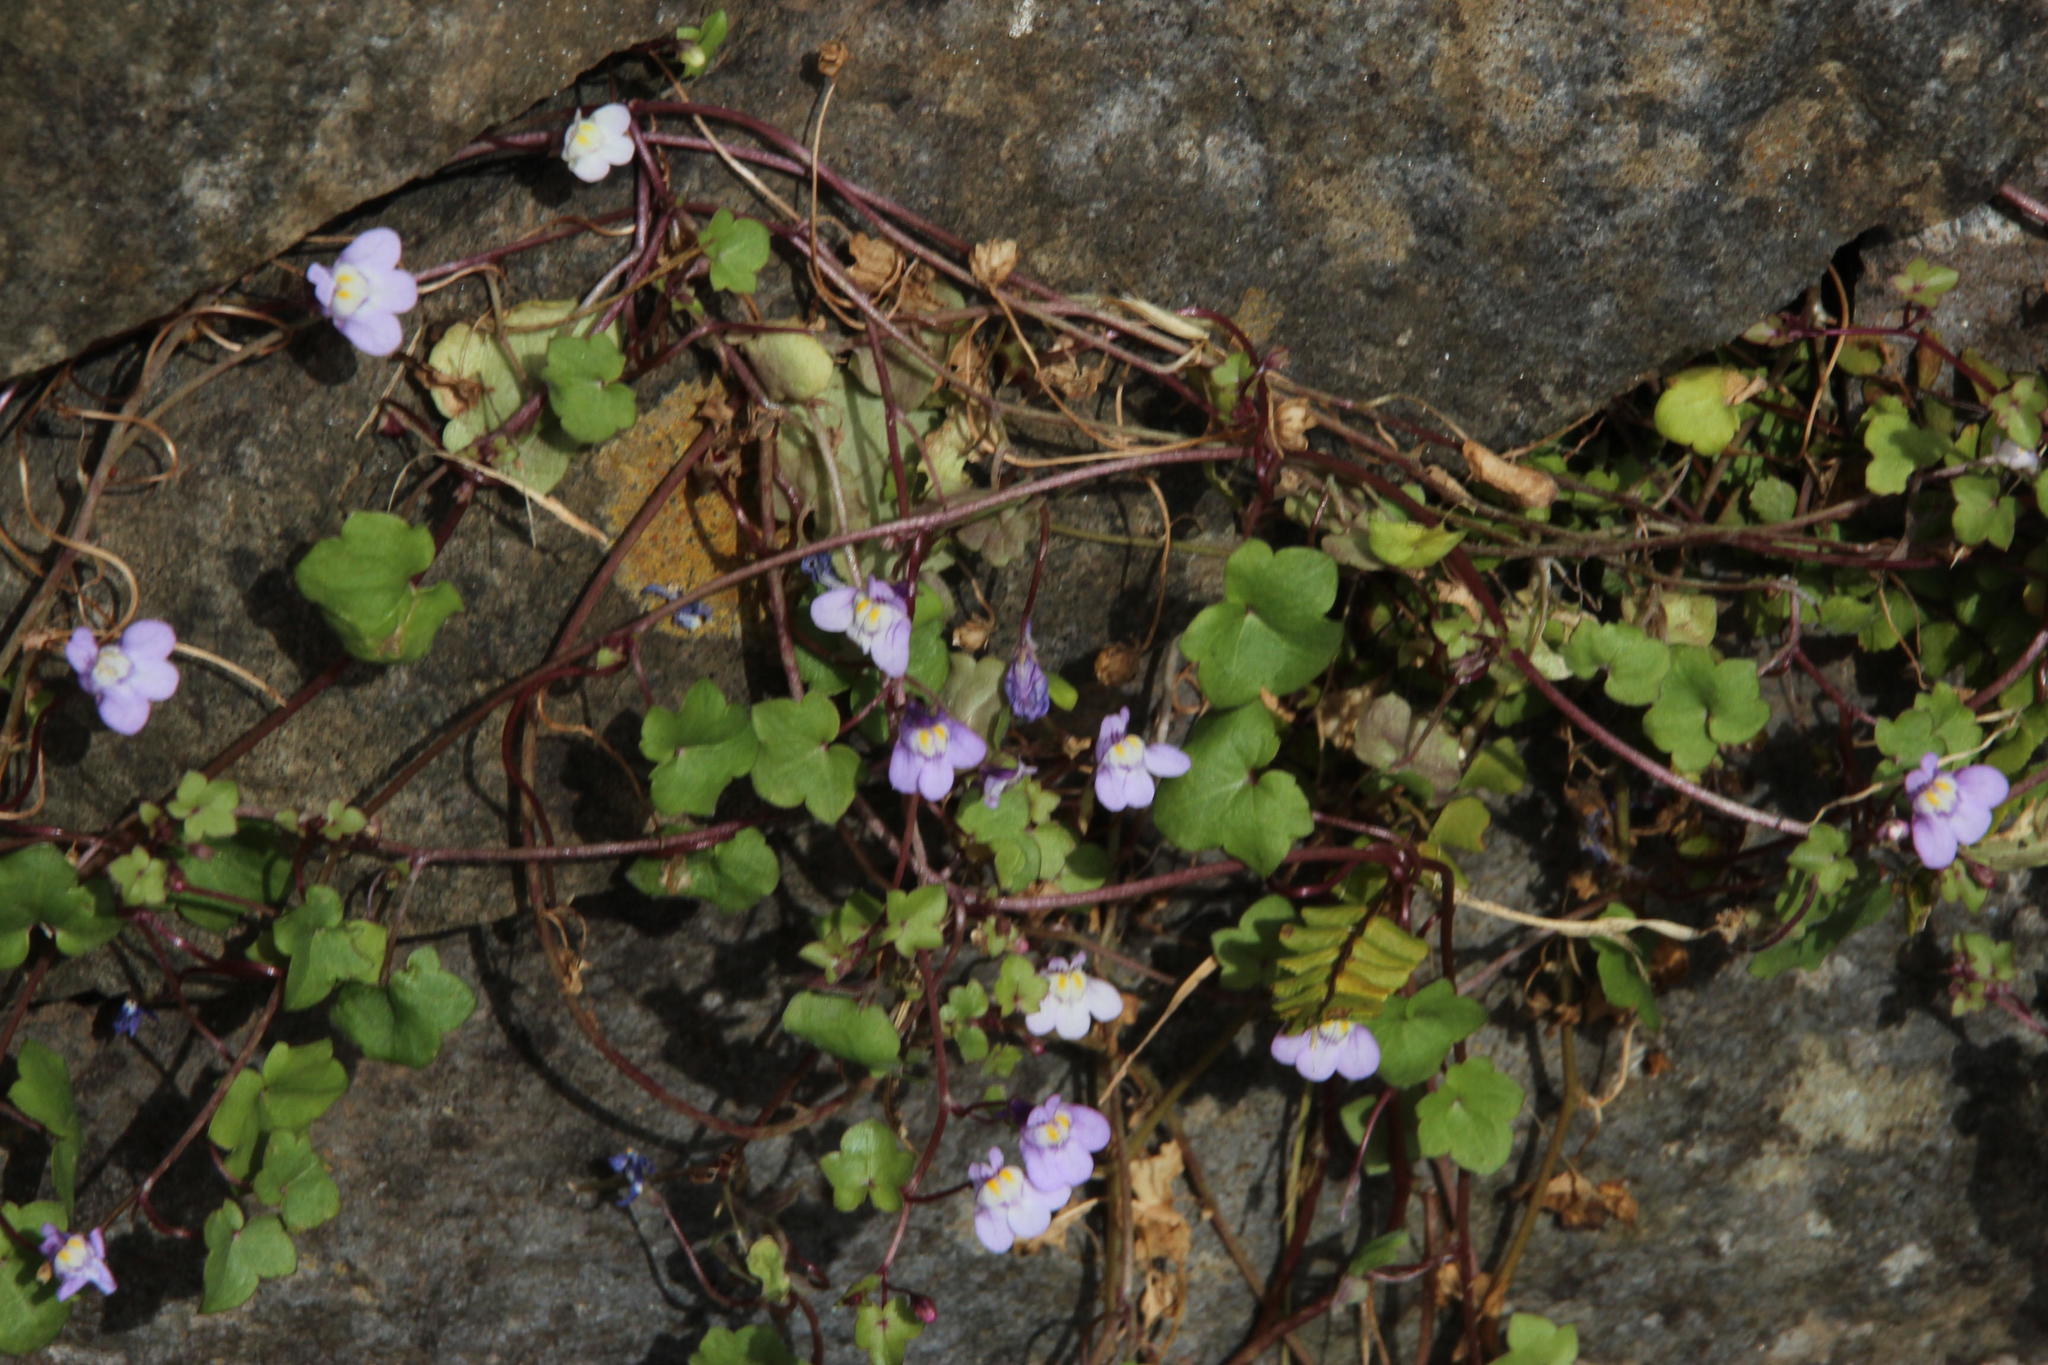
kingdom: Plantae
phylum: Tracheophyta
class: Magnoliopsida
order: Lamiales
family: Plantaginaceae
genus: Cymbalaria
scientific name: Cymbalaria muralis
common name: Ivy-leaved toadflax
